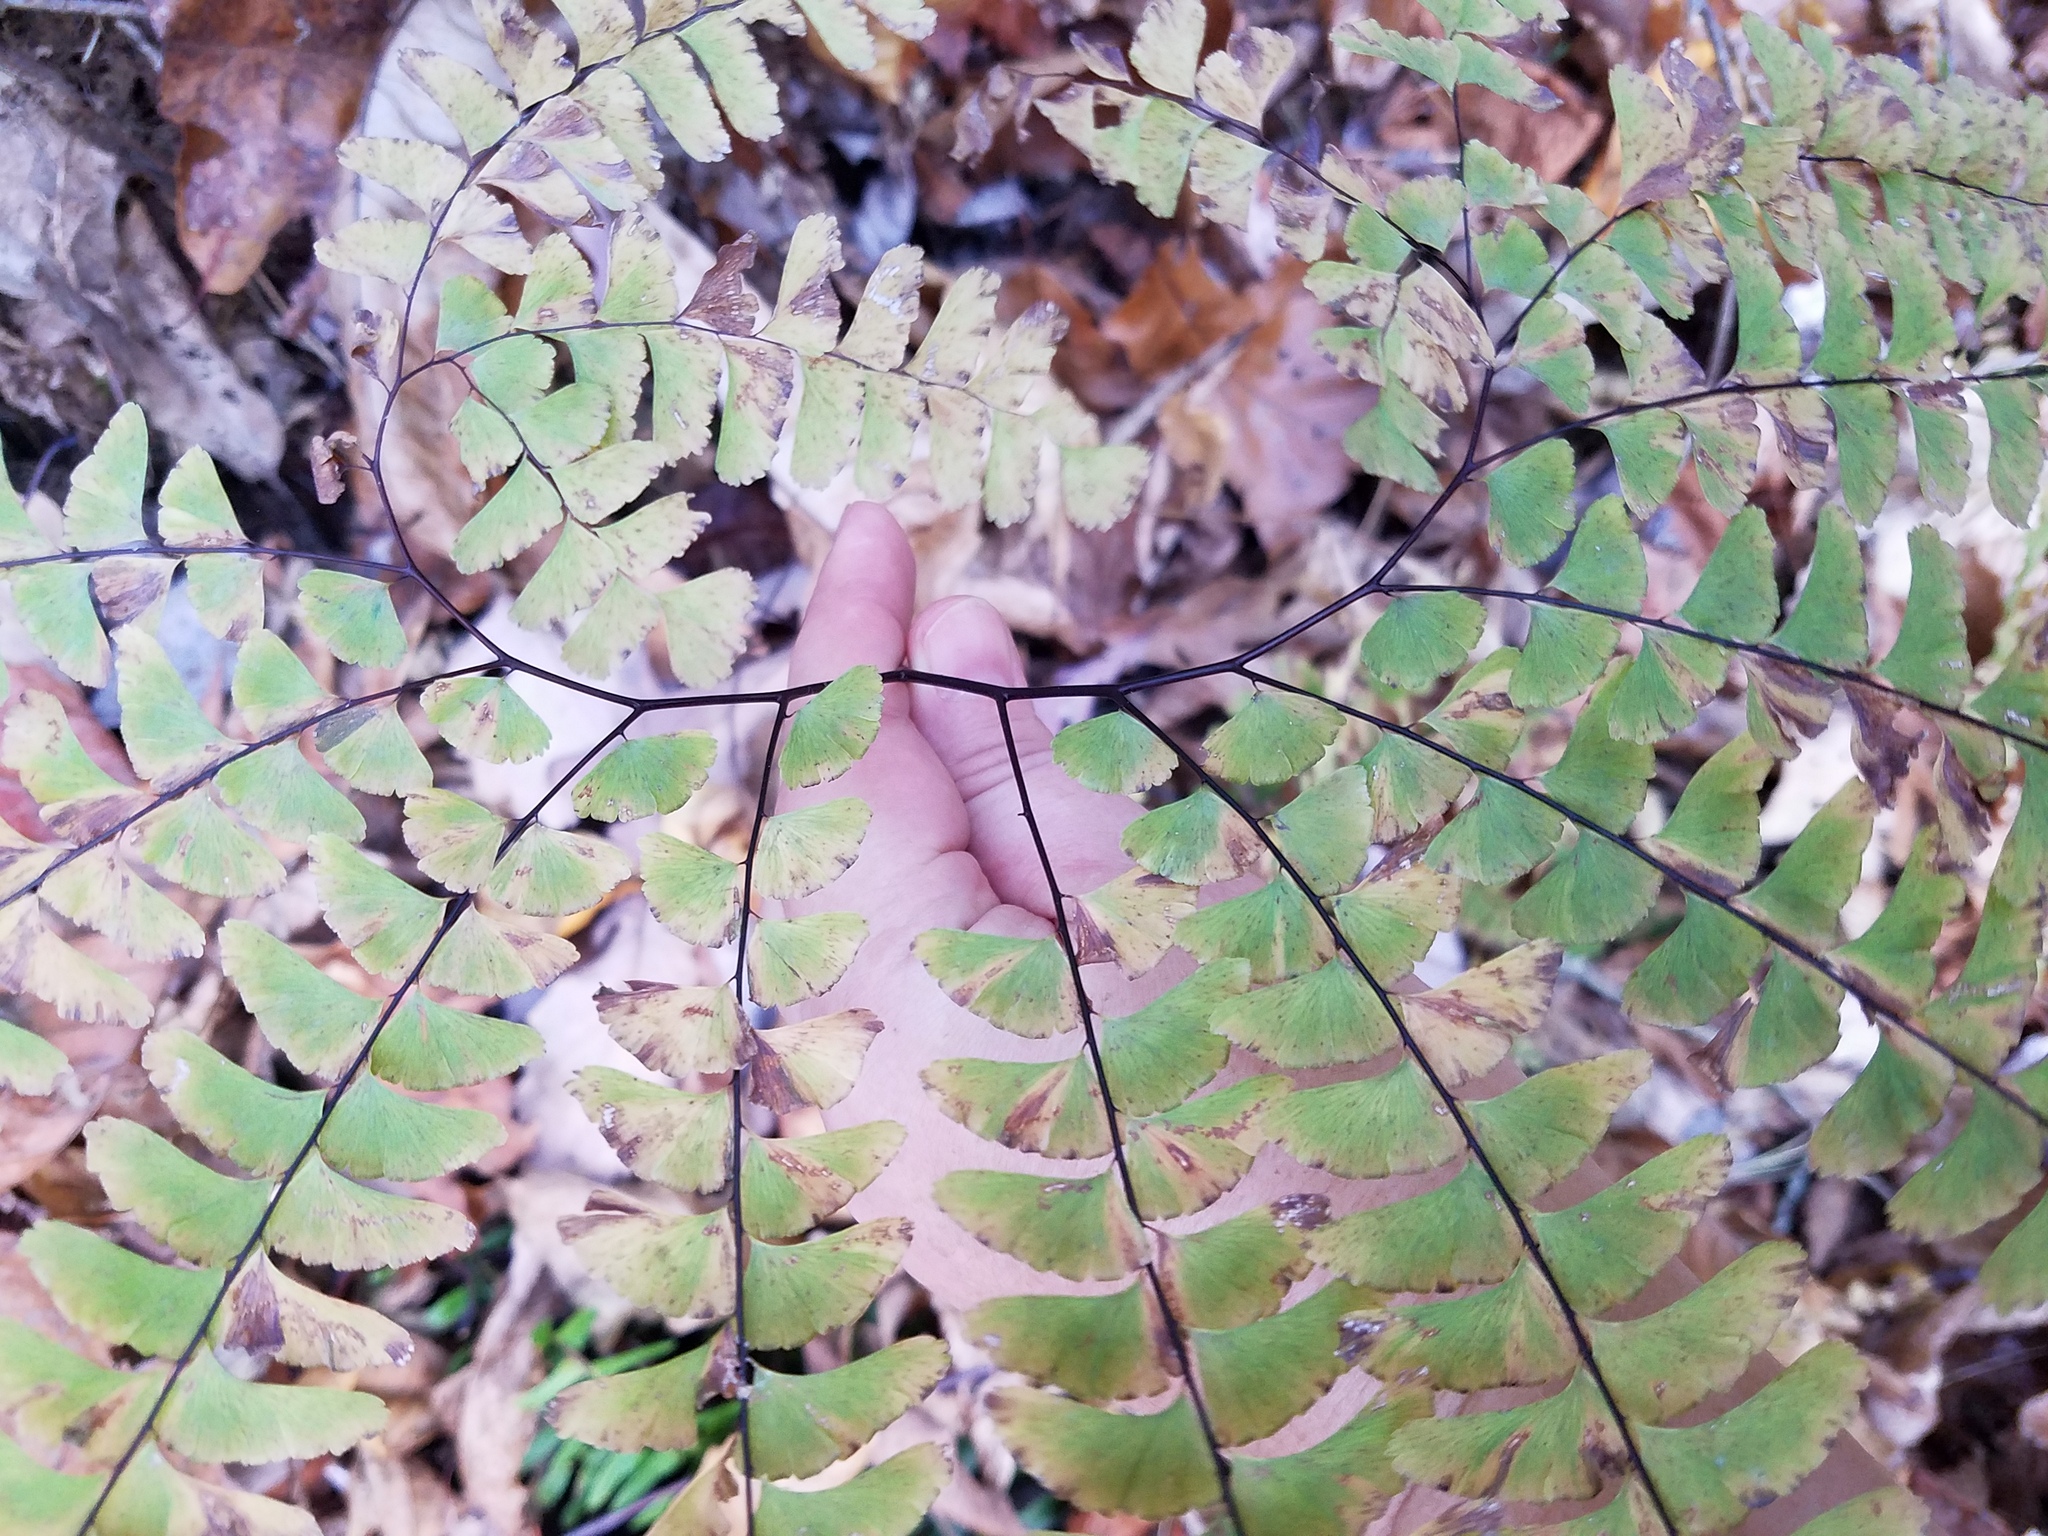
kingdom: Plantae
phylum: Tracheophyta
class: Polypodiopsida
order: Polypodiales
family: Pteridaceae
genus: Adiantum
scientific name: Adiantum pedatum
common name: Five-finger fern
